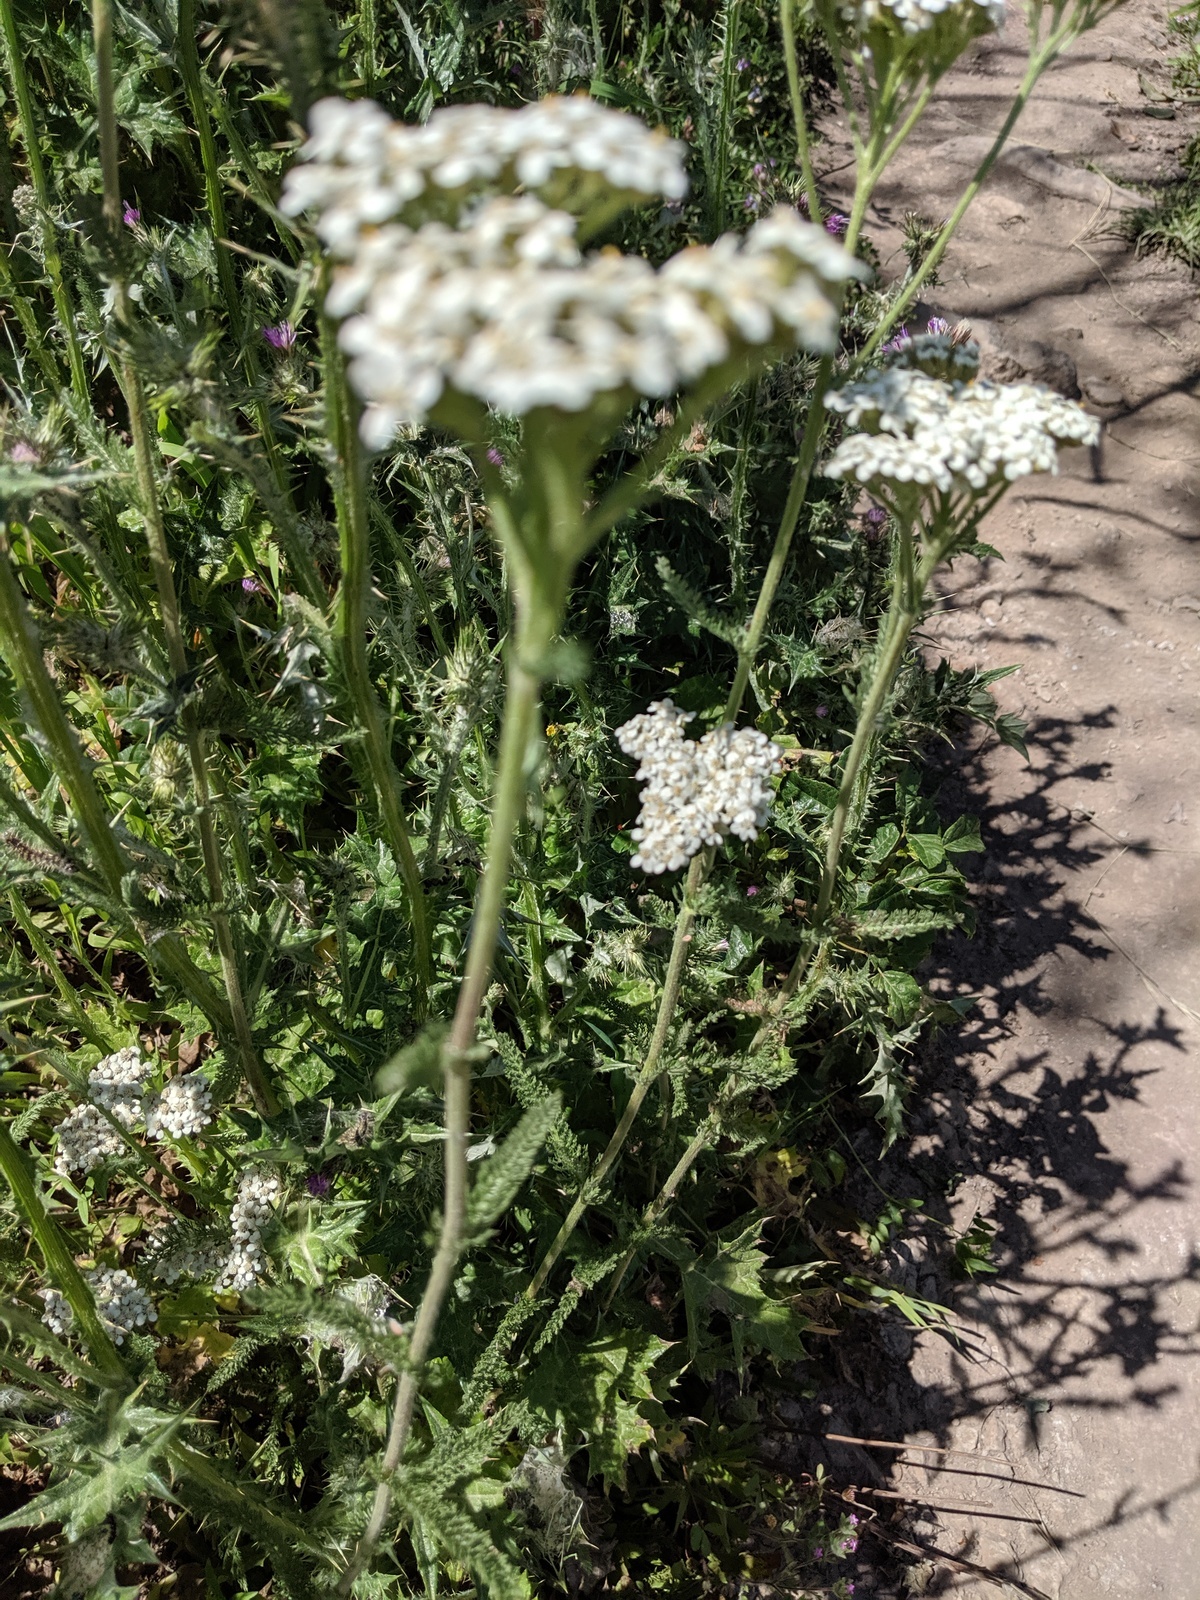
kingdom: Plantae
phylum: Tracheophyta
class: Magnoliopsida
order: Asterales
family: Asteraceae
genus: Achillea
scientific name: Achillea millefolium
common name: Yarrow
